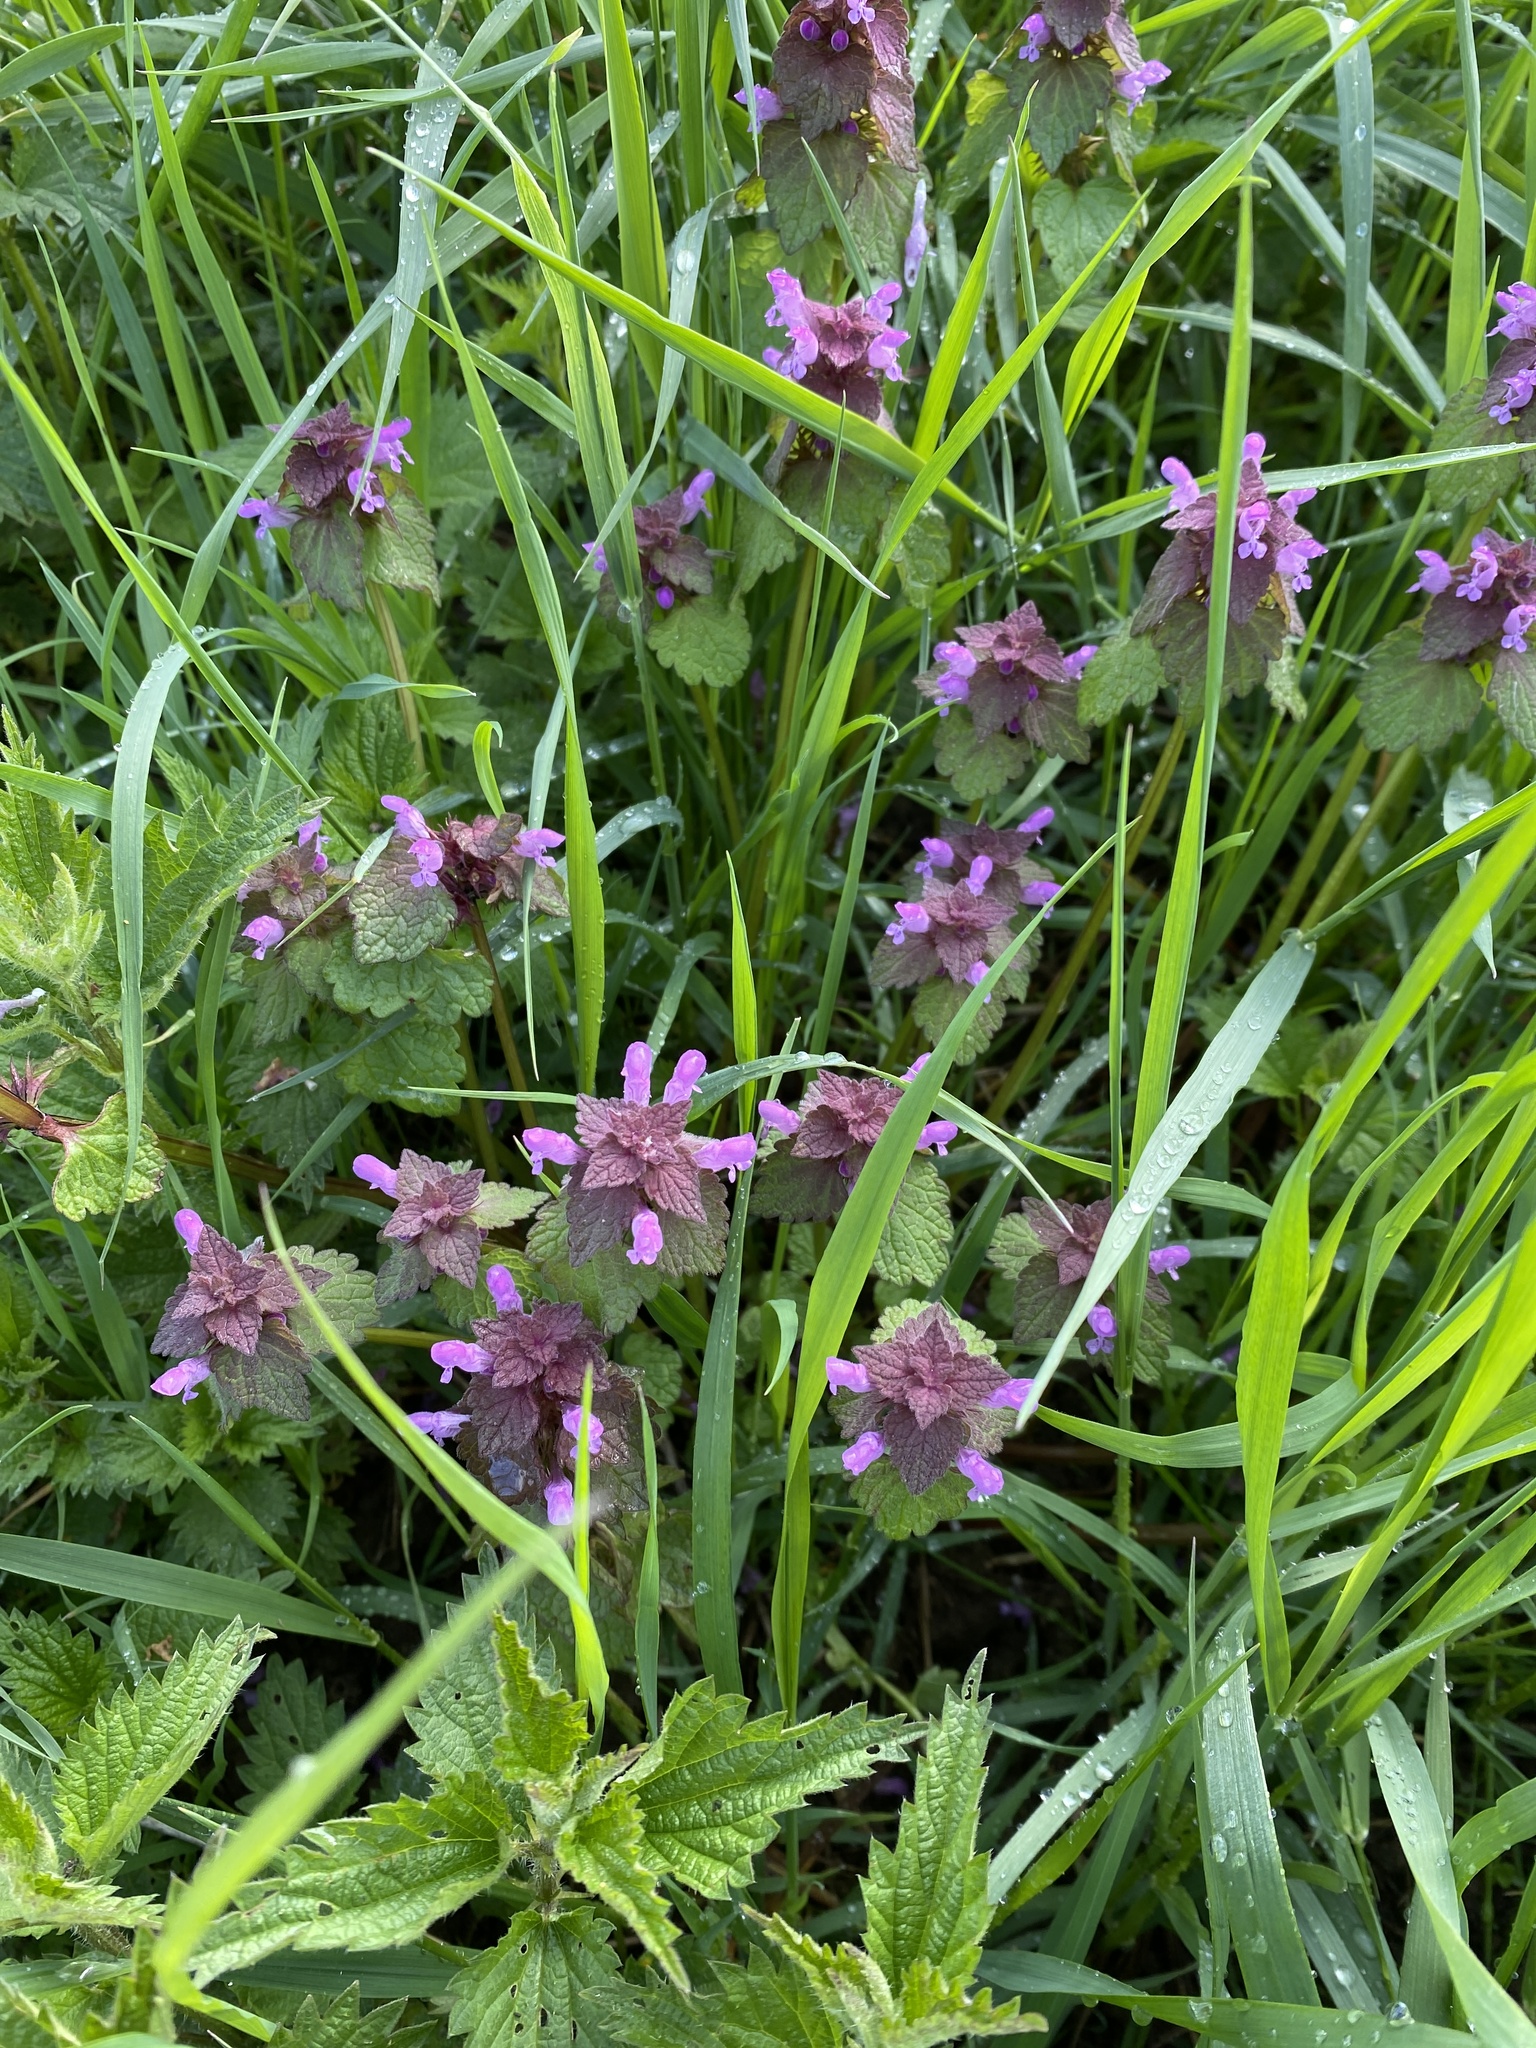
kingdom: Plantae
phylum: Tracheophyta
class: Magnoliopsida
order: Lamiales
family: Lamiaceae
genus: Lamium
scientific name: Lamium purpureum
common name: Red dead-nettle
